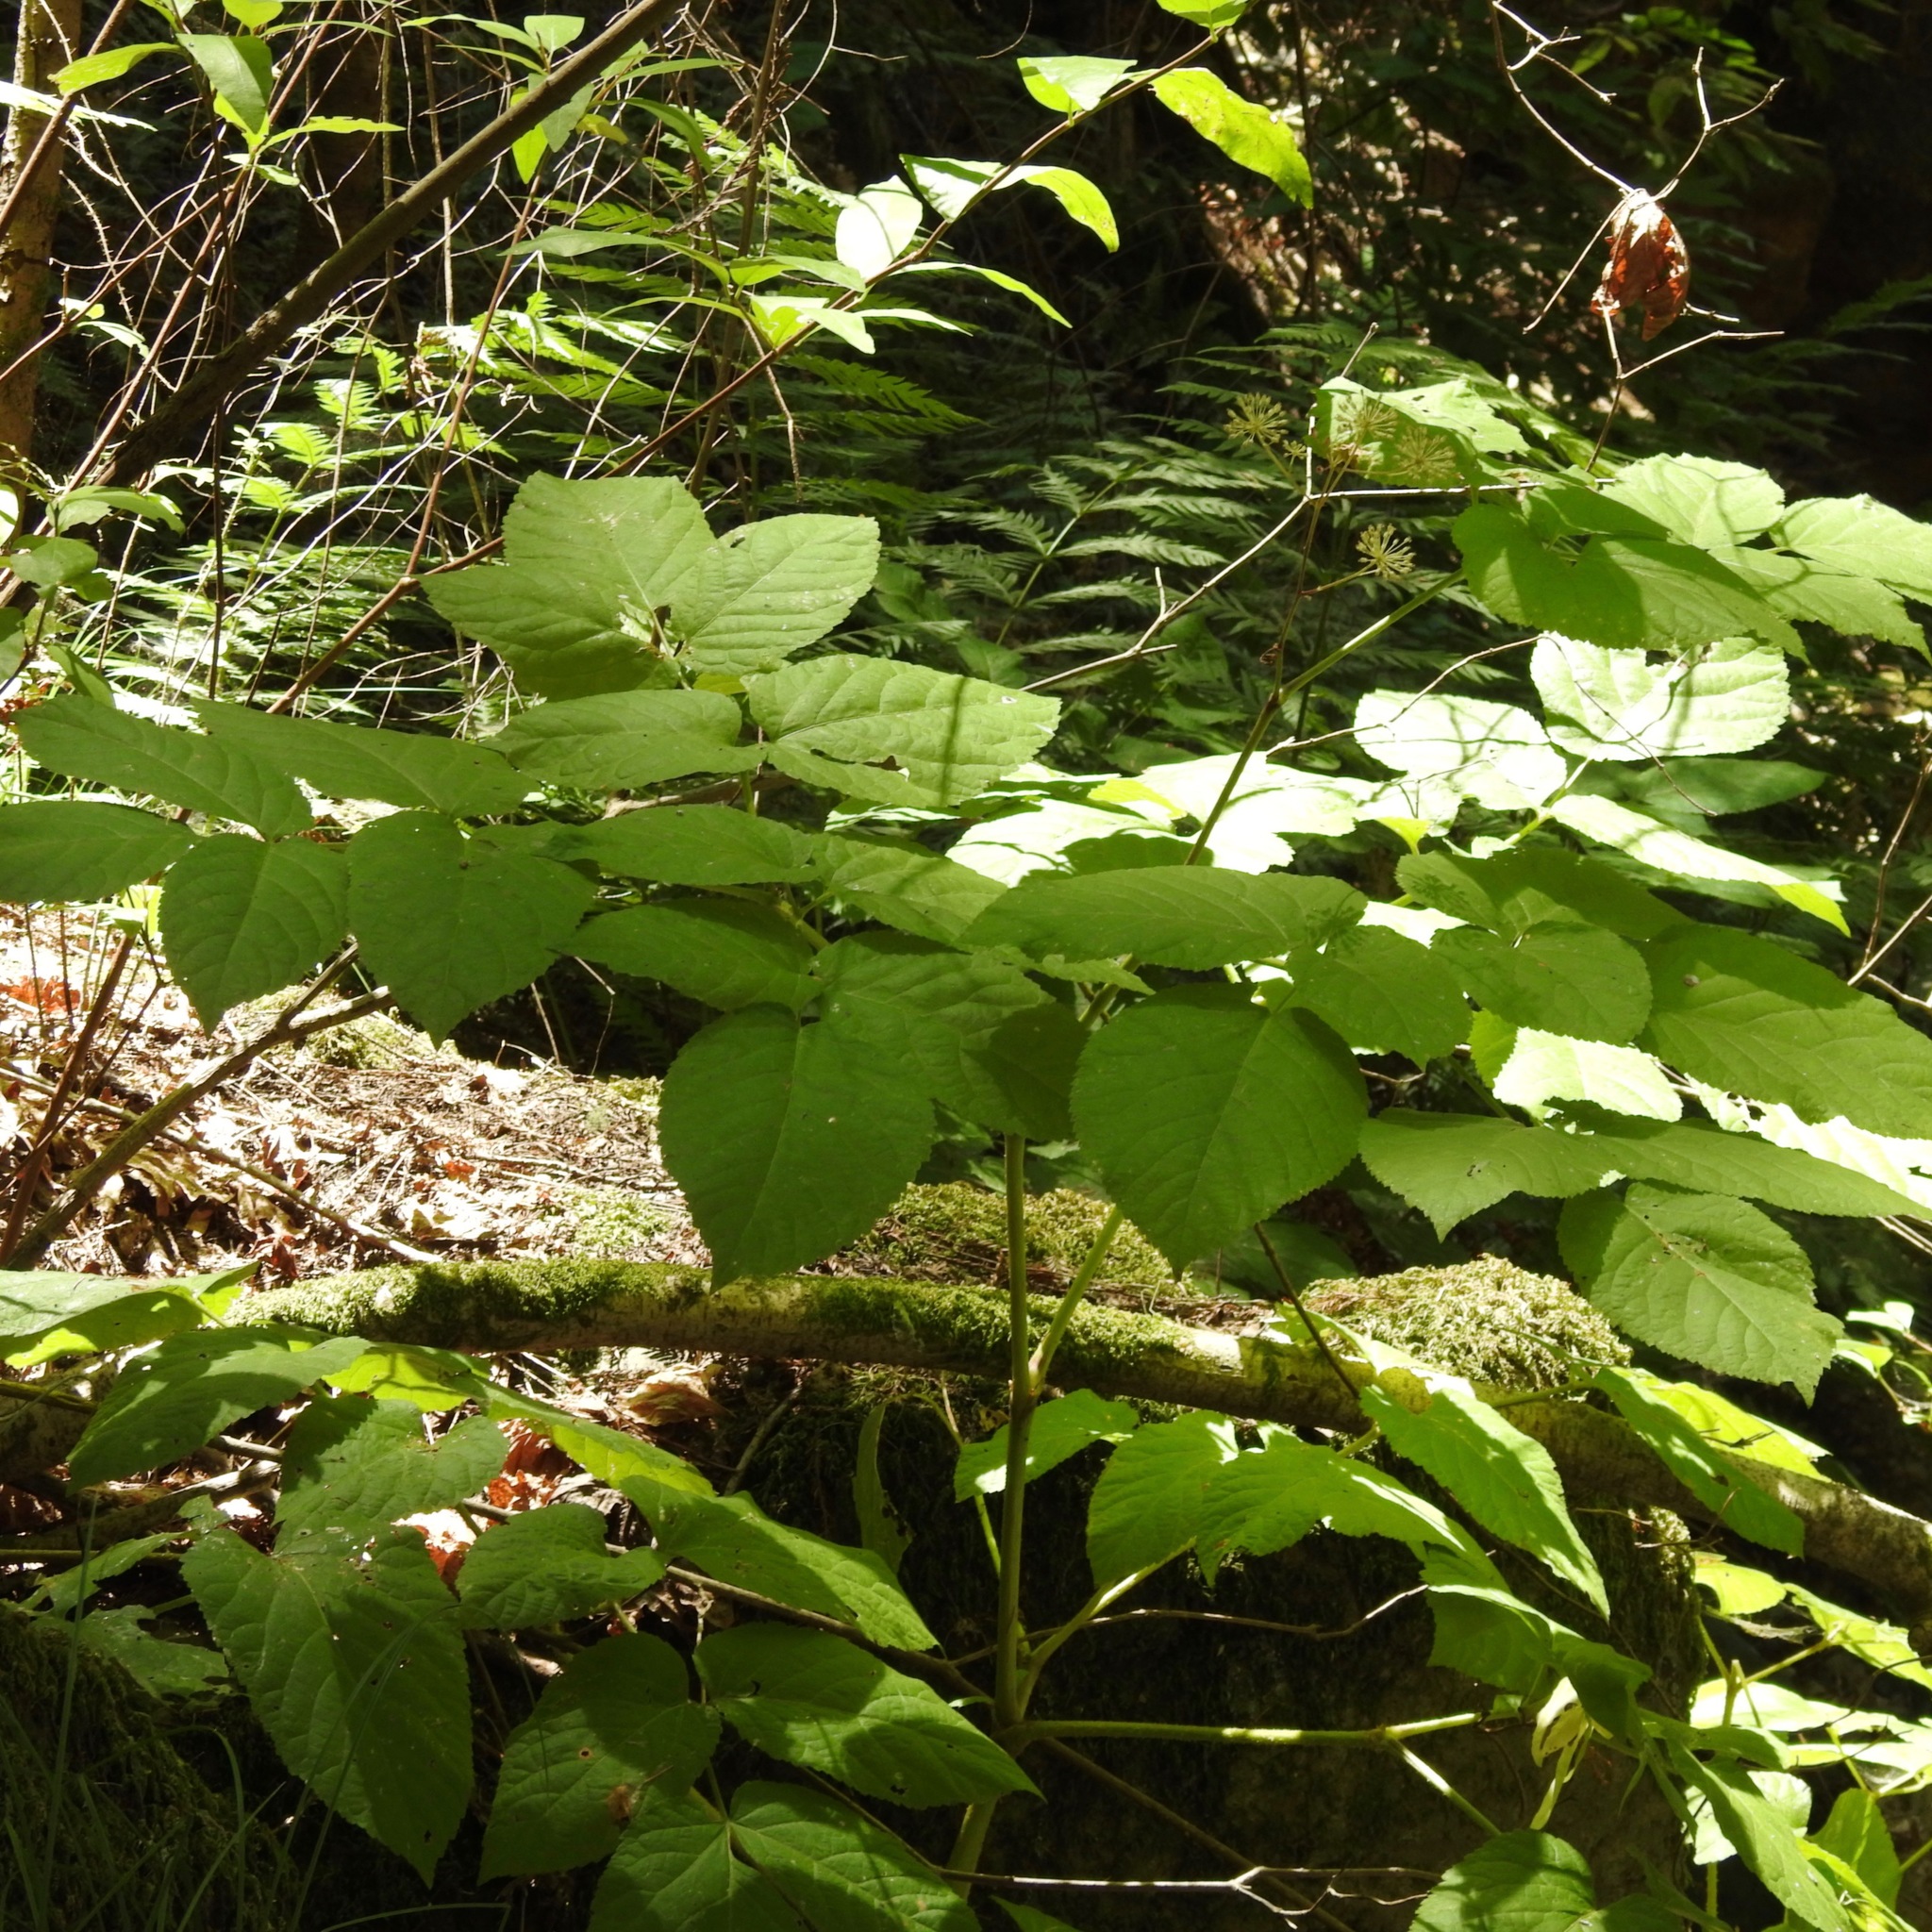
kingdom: Plantae
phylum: Tracheophyta
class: Magnoliopsida
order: Apiales
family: Araliaceae
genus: Aralia
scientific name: Aralia californica
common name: California-ginseng
